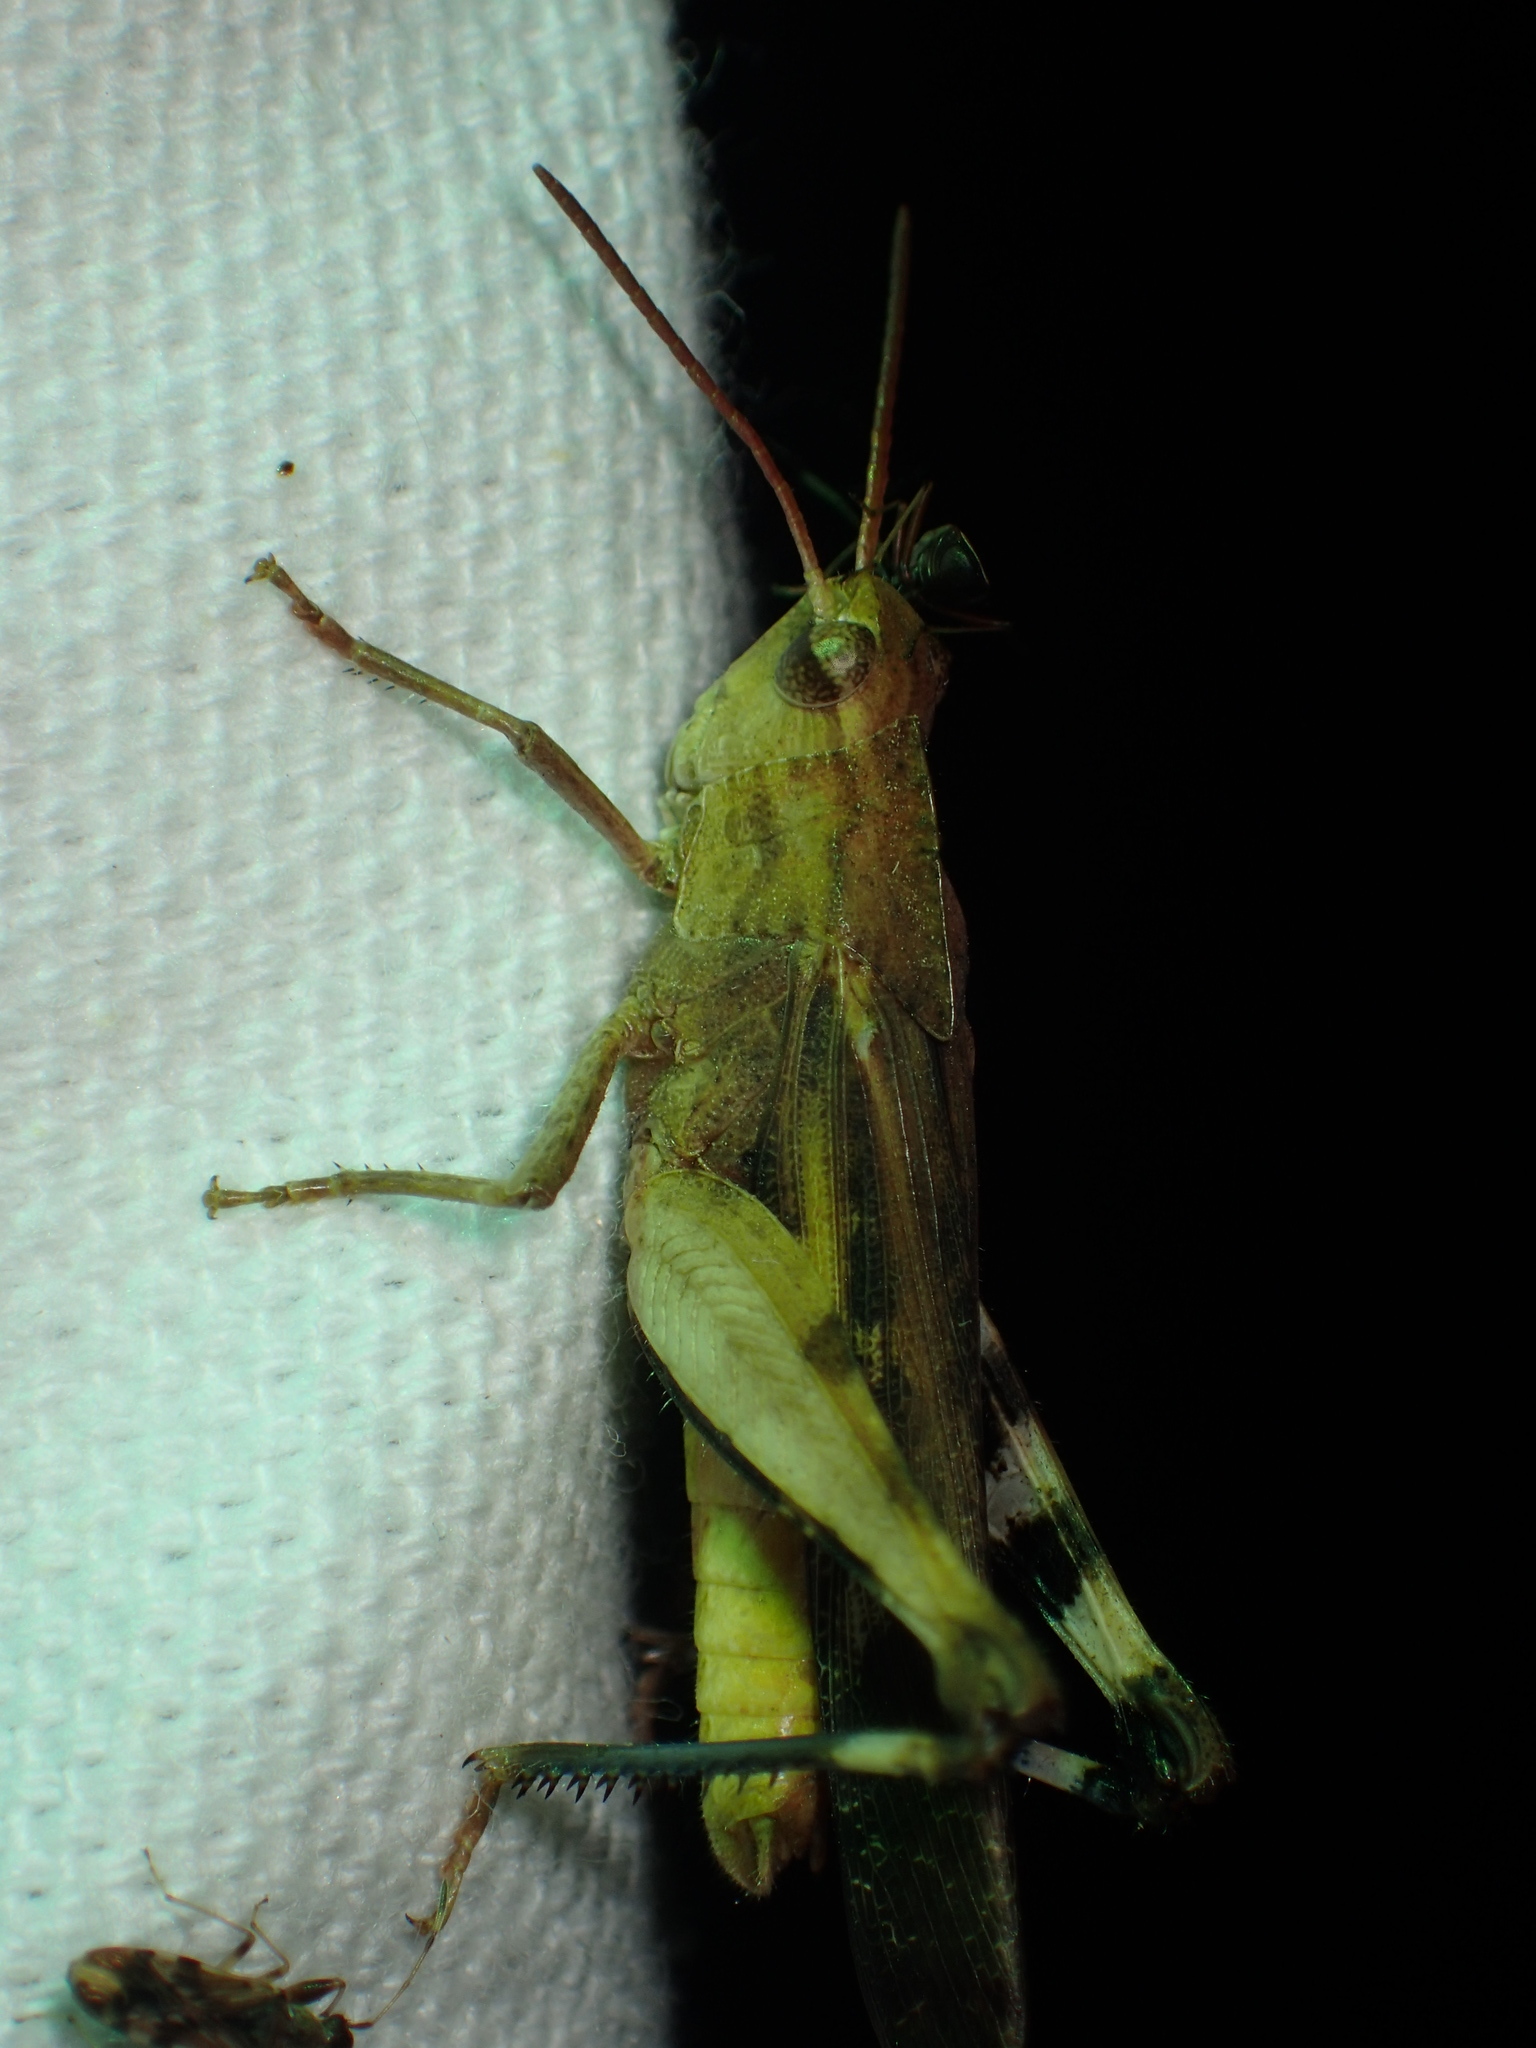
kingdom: Animalia
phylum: Arthropoda
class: Insecta
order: Orthoptera
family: Acrididae
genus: Chortophaga
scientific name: Chortophaga viridifasciata
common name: Green-striped grasshopper
